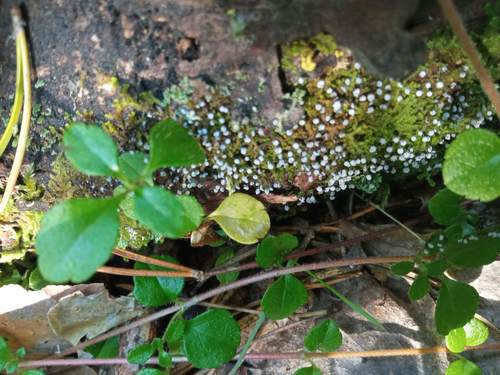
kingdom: Protozoa
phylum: Mycetozoa
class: Myxomycetes
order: Physarales
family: Physaraceae
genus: Physarum
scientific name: Physarum album
